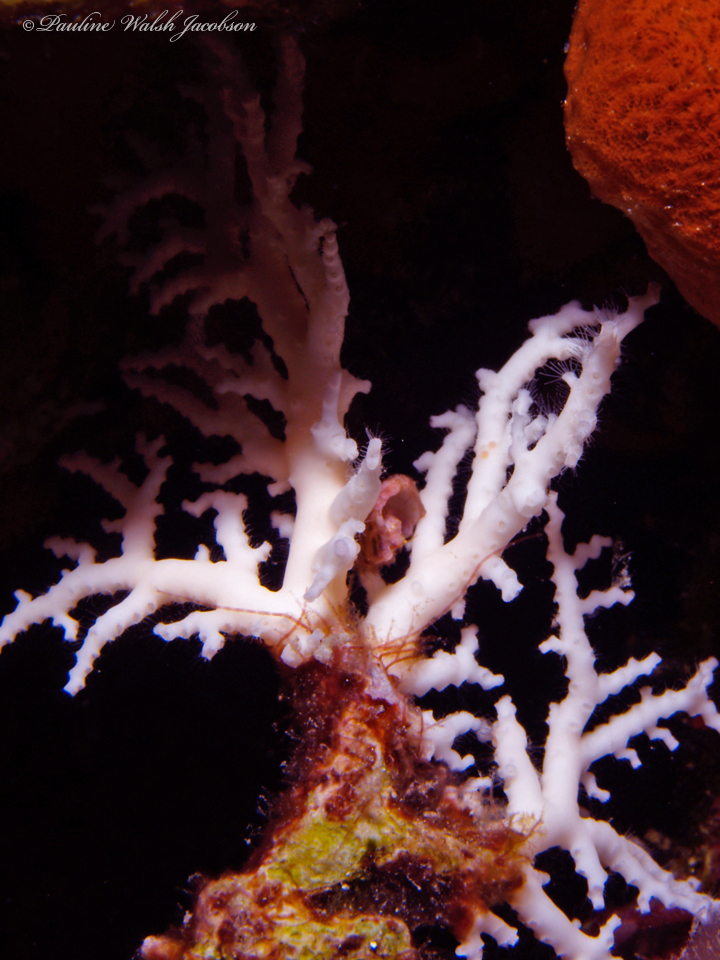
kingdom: Animalia
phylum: Cnidaria
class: Hydrozoa
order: Anthoathecata
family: Stylasteridae
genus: Stylaster
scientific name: Stylaster roseus
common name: Rose lace coral
